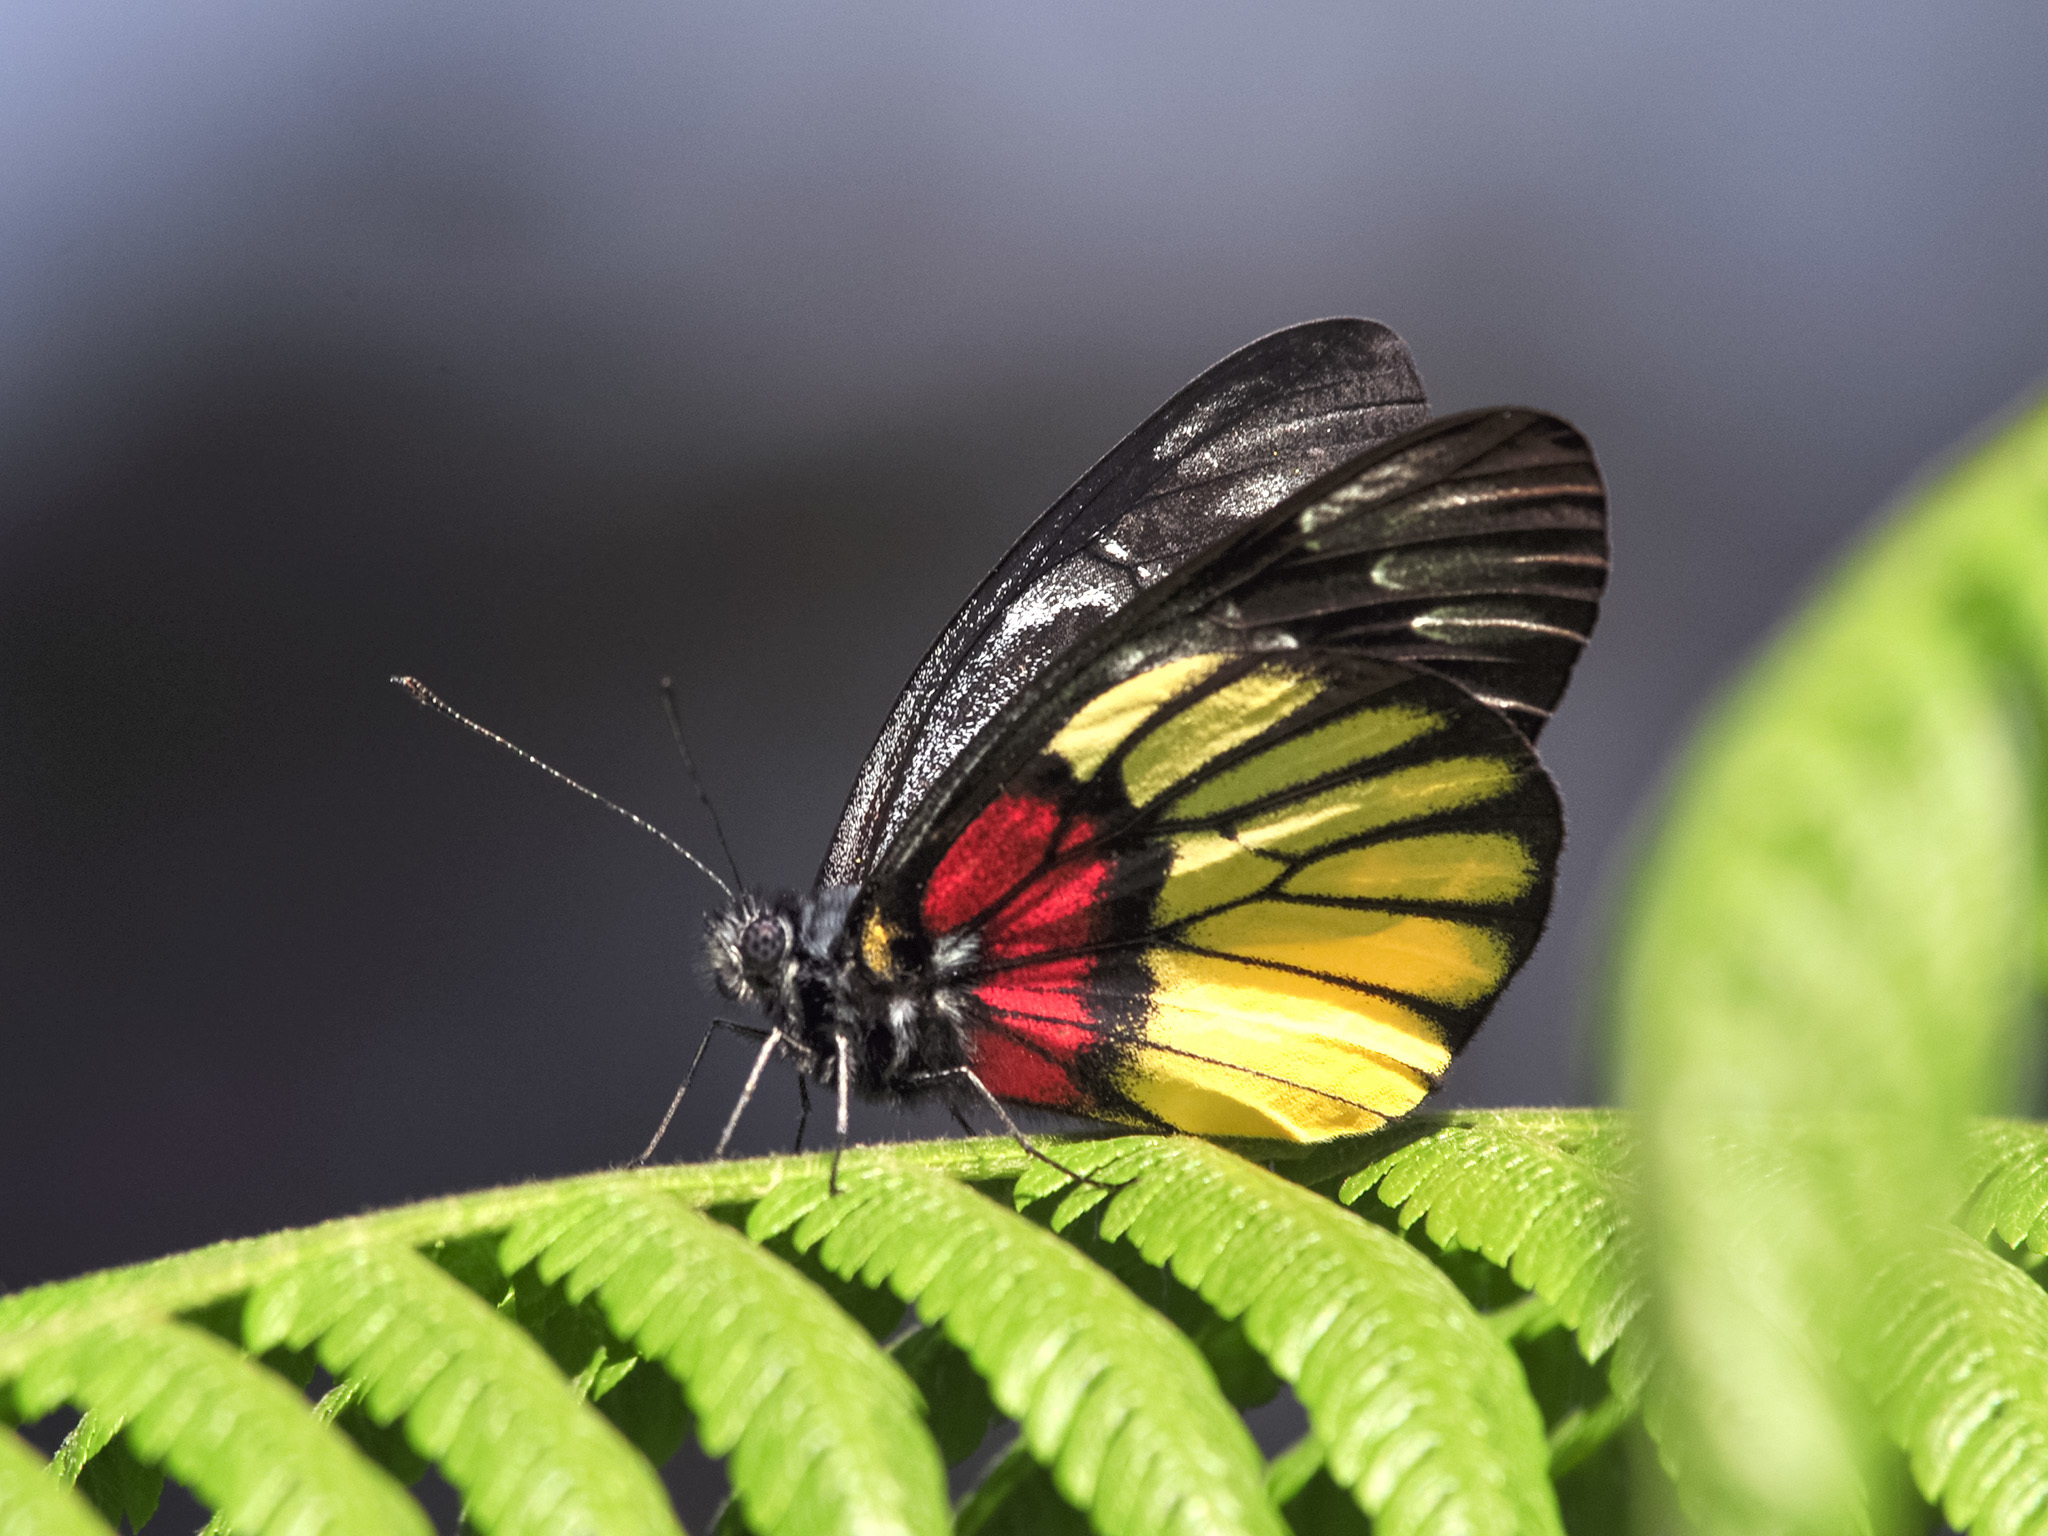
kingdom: Animalia
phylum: Arthropoda
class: Insecta
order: Lepidoptera
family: Pieridae
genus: Delias
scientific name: Delias ninus
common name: Malayan jezebel
